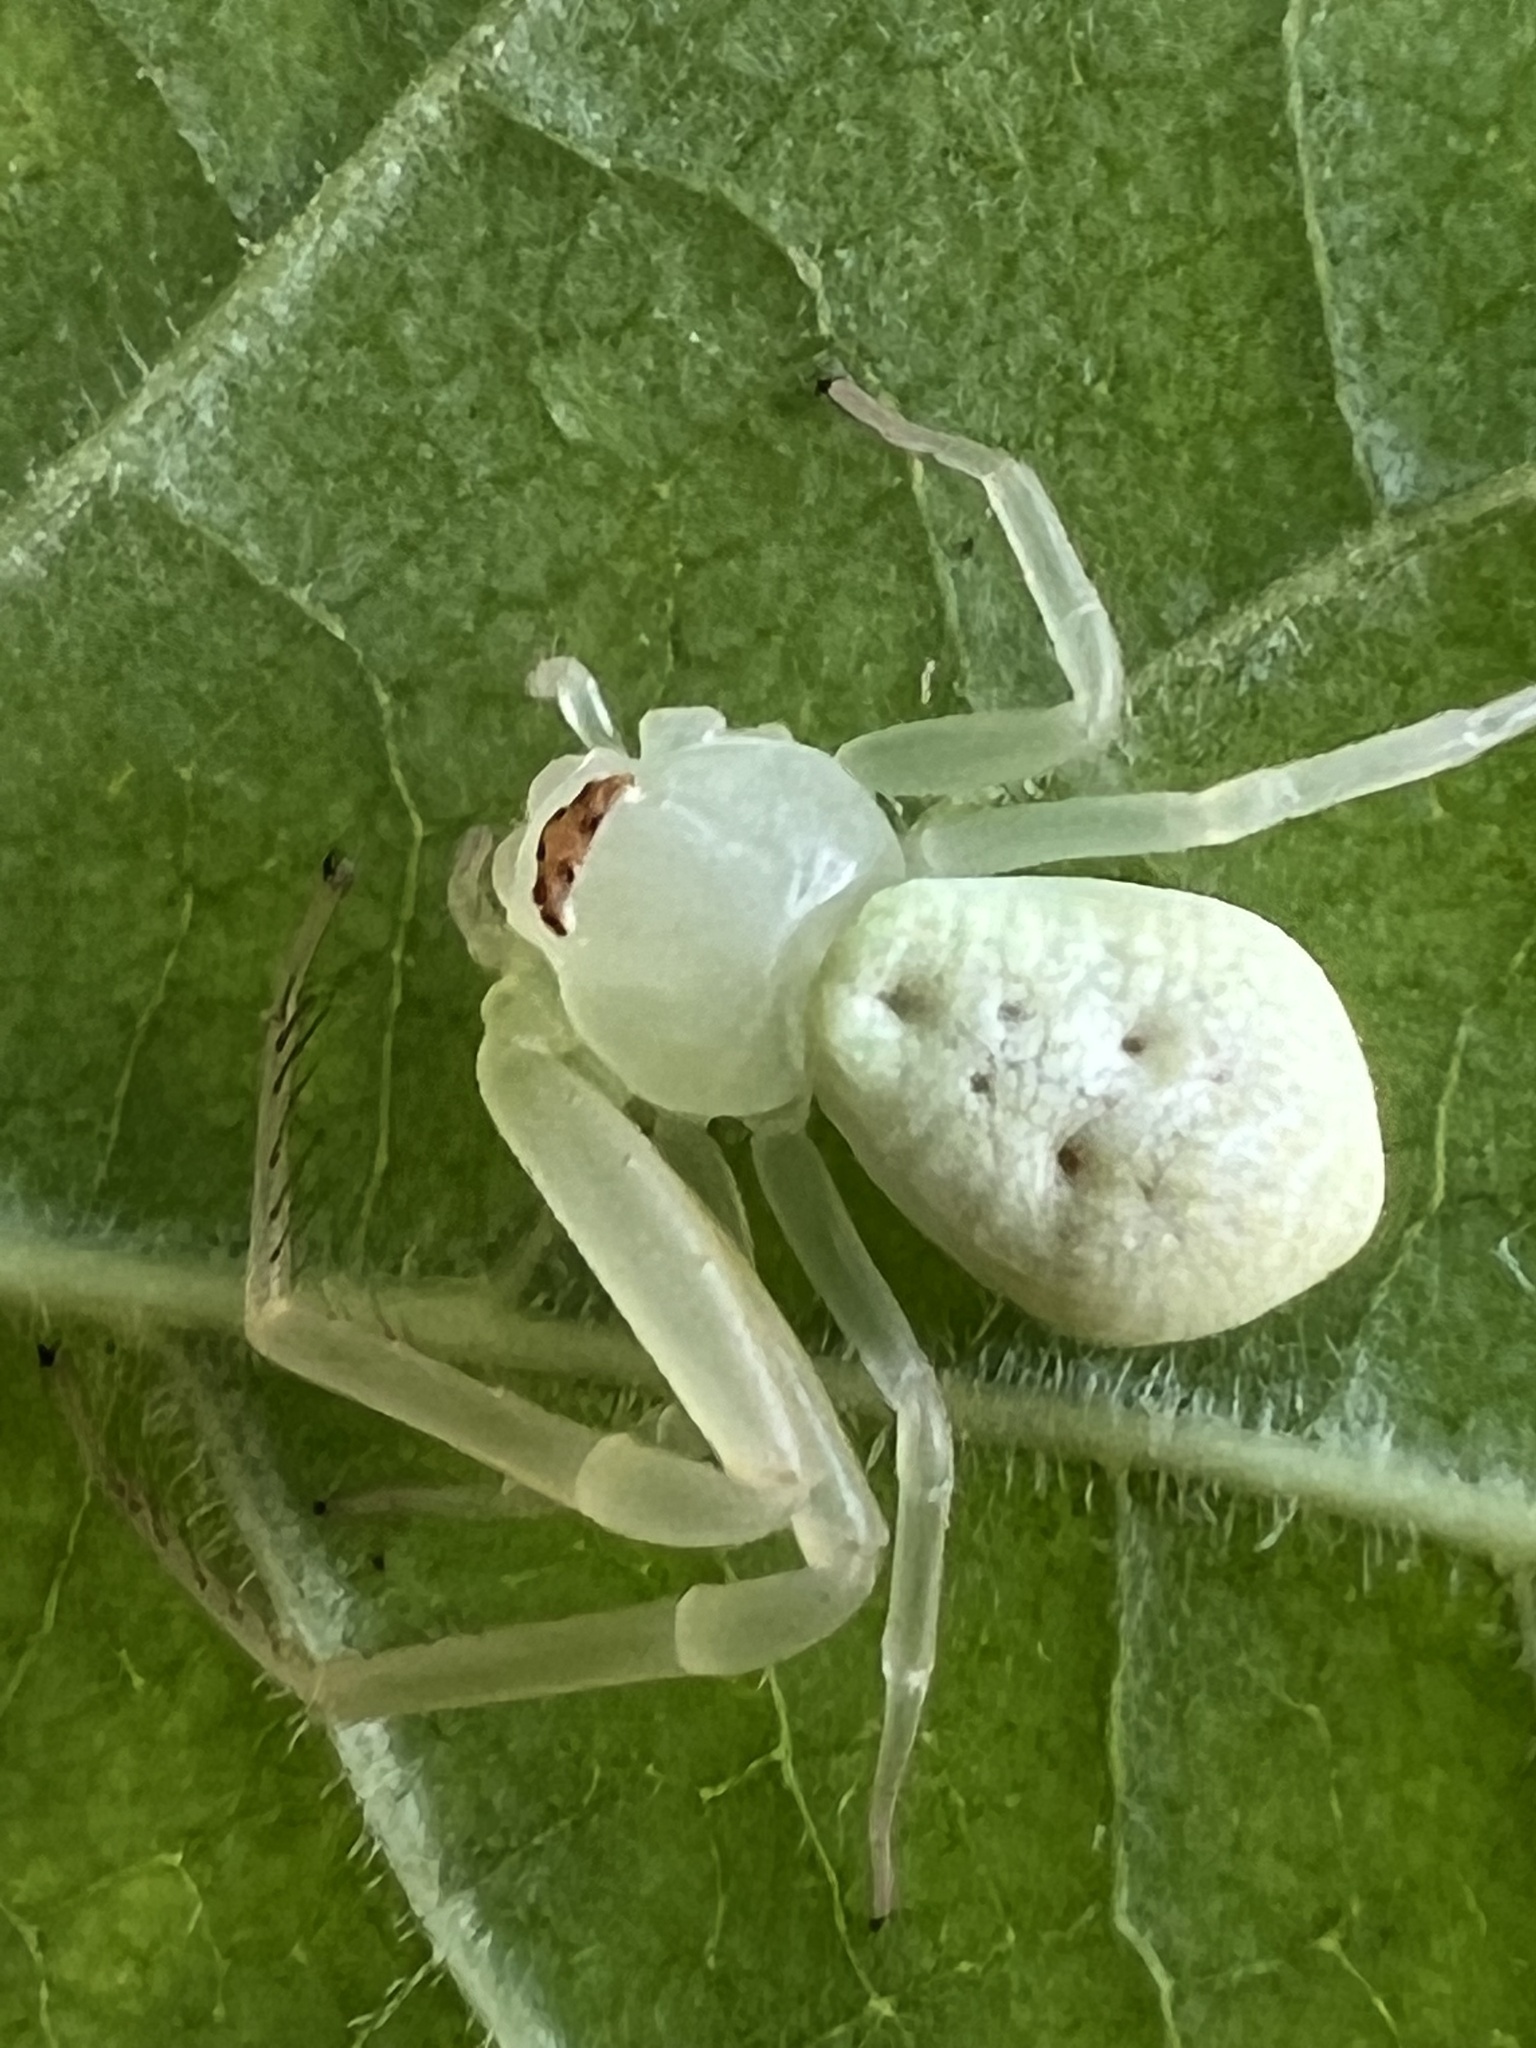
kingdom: Animalia
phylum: Arthropoda
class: Arachnida
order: Araneae
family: Thomisidae
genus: Misumessus
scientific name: Misumessus oblongus
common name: American green crab spider
